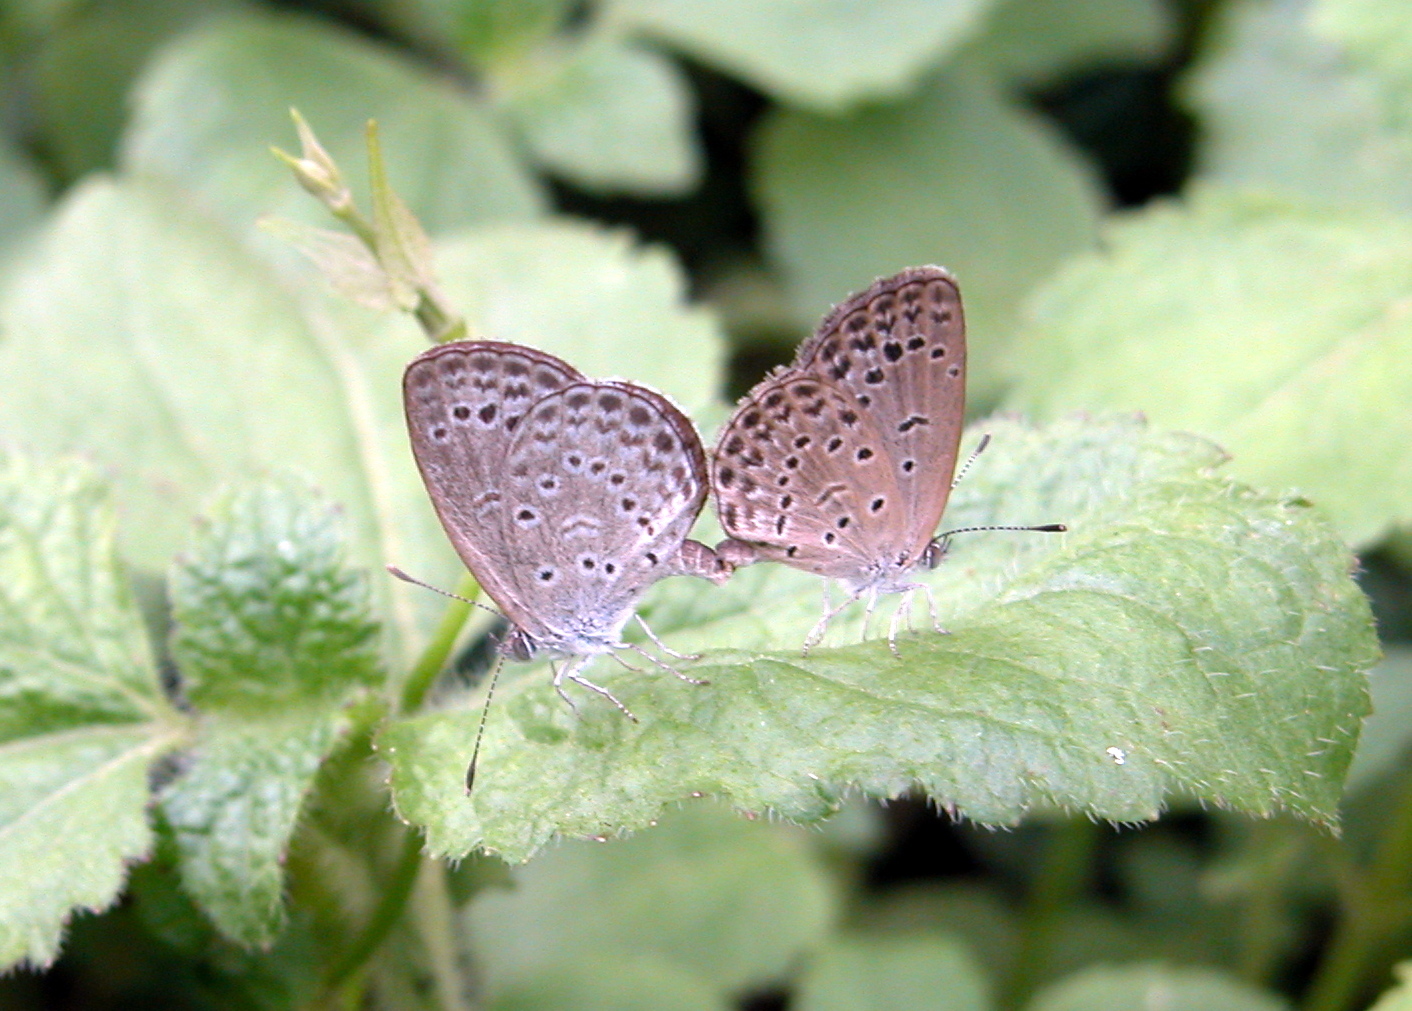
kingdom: Animalia
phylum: Arthropoda
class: Insecta
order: Lepidoptera
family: Lycaenidae
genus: Pseudozizeeria
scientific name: Pseudozizeeria maha
